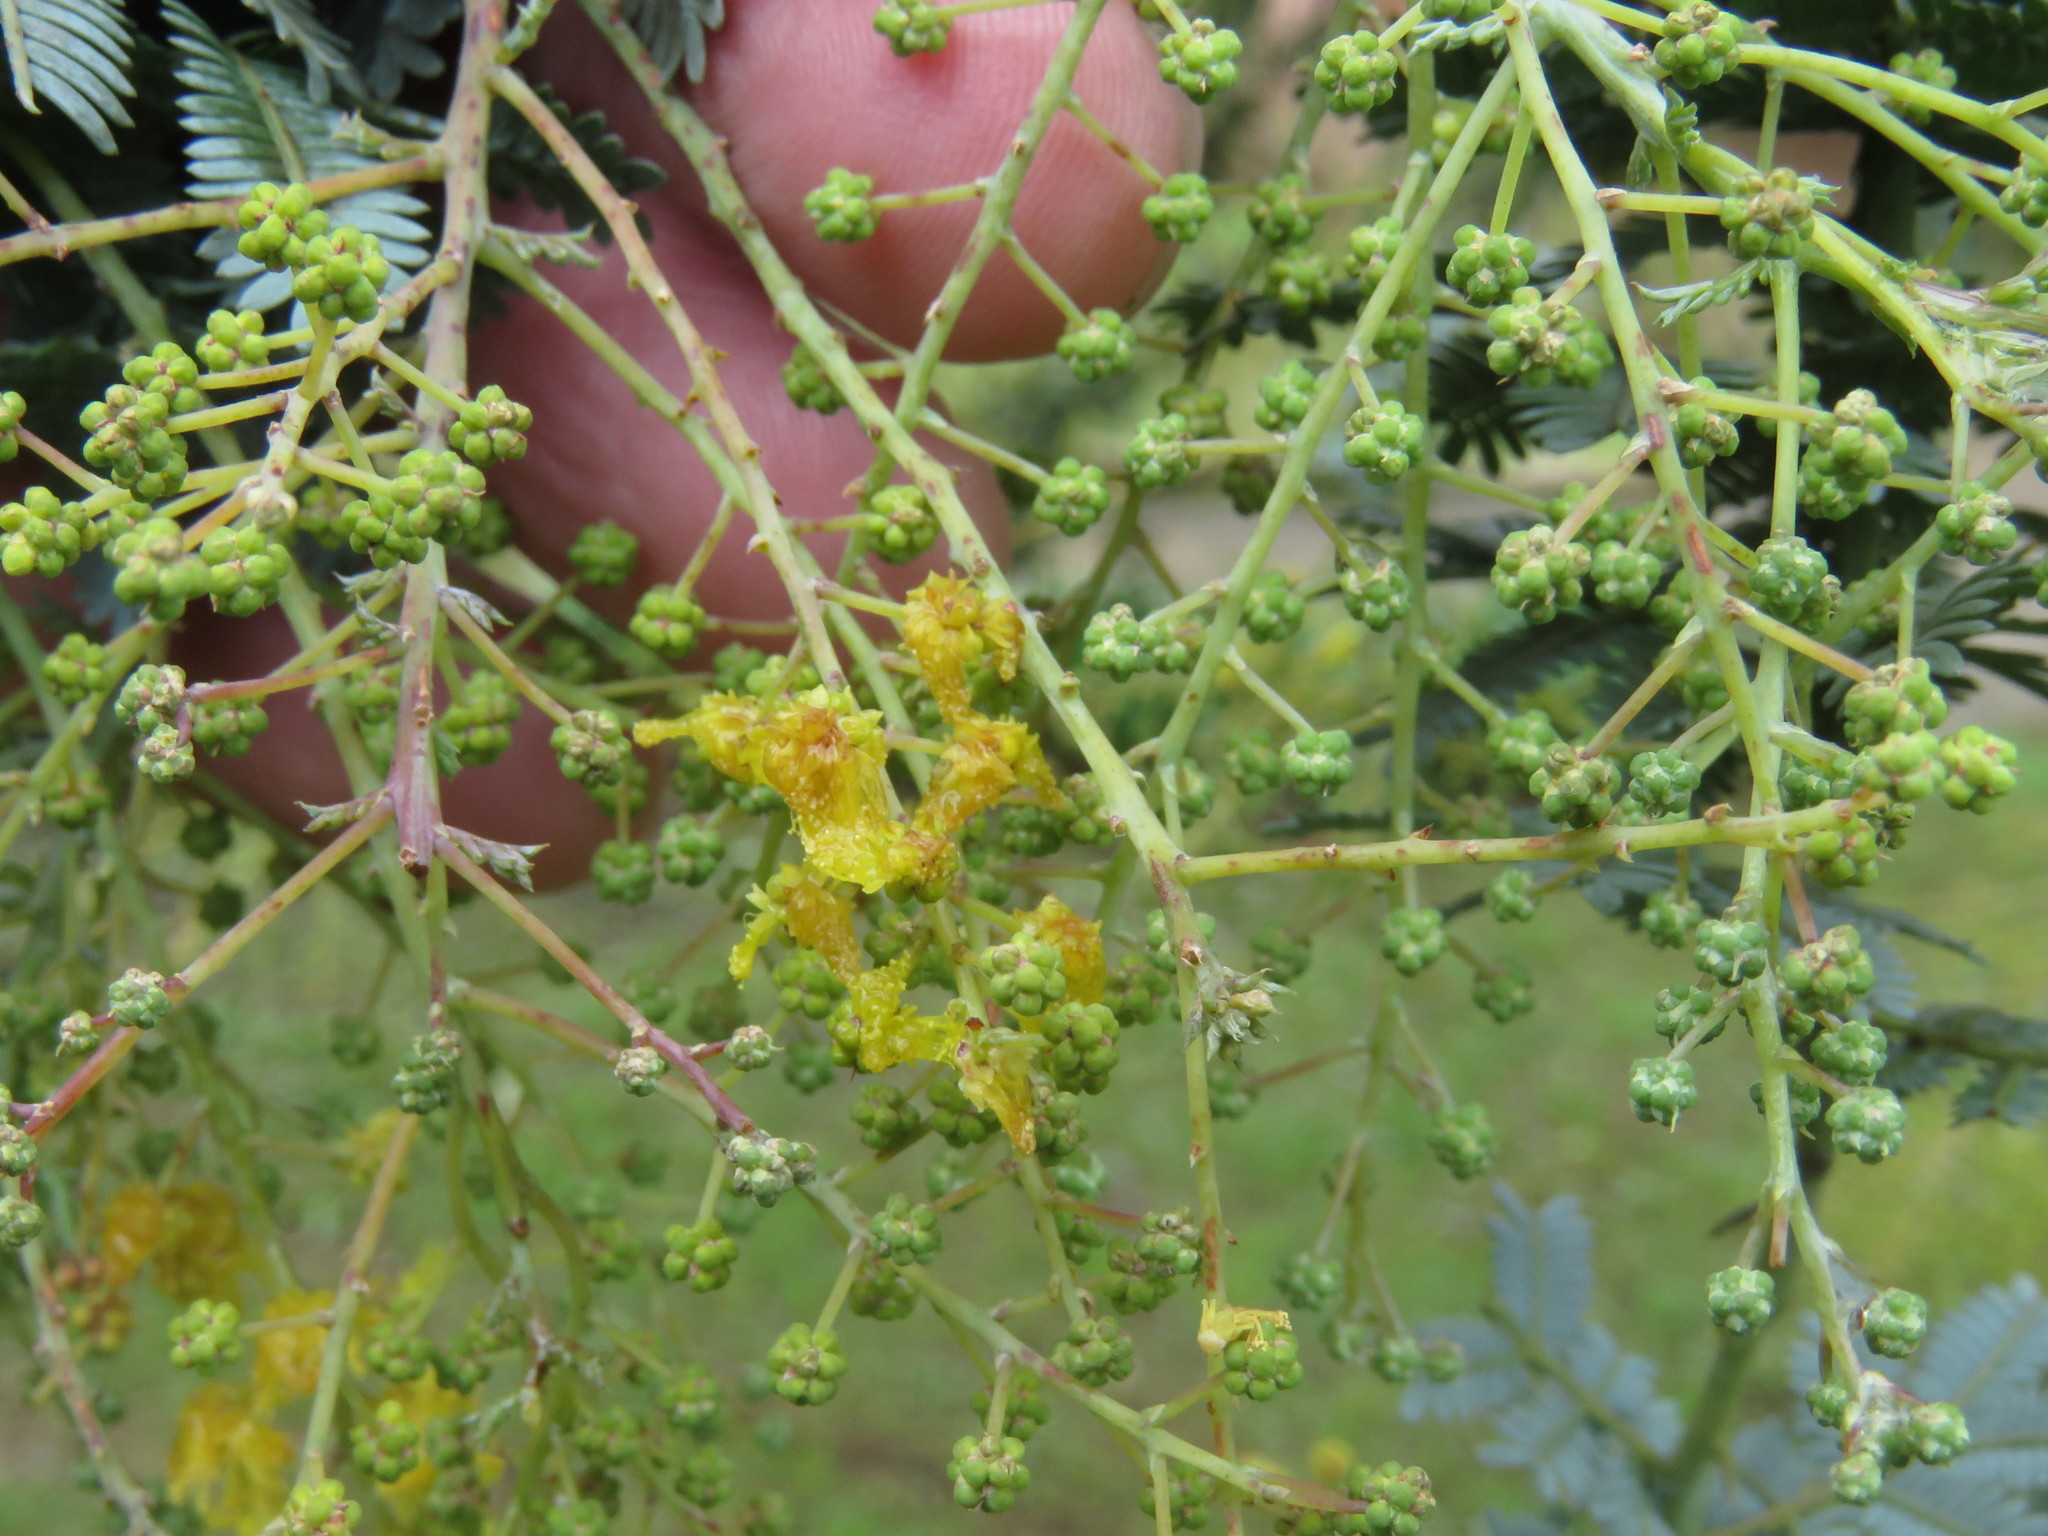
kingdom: Plantae
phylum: Tracheophyta
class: Magnoliopsida
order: Fabales
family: Fabaceae
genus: Acacia
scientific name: Acacia baileyana
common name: Cootamundra wattle
